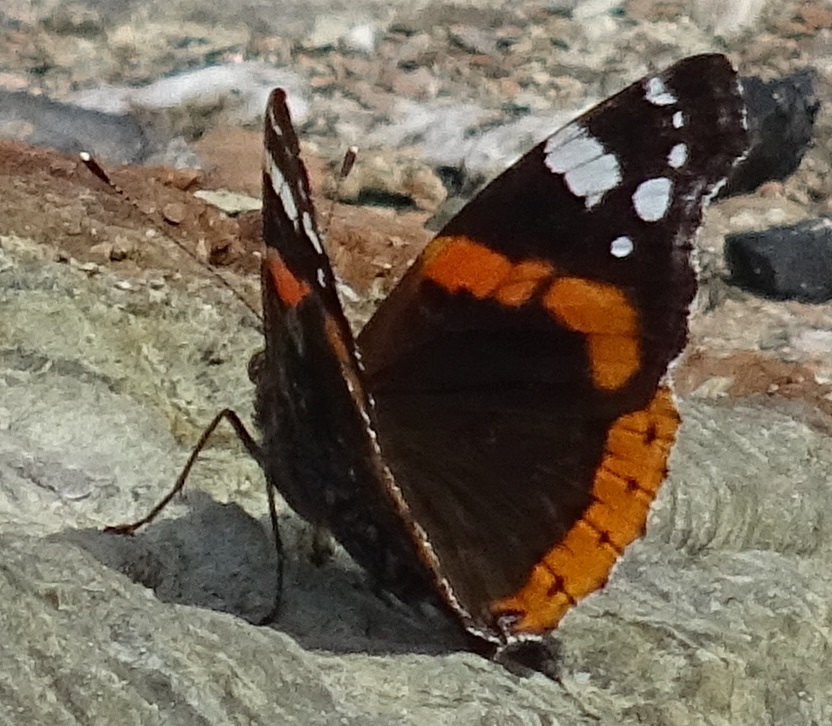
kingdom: Animalia
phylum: Arthropoda
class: Insecta
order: Lepidoptera
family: Nymphalidae
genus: Vanessa
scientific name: Vanessa atalanta
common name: Red admiral
